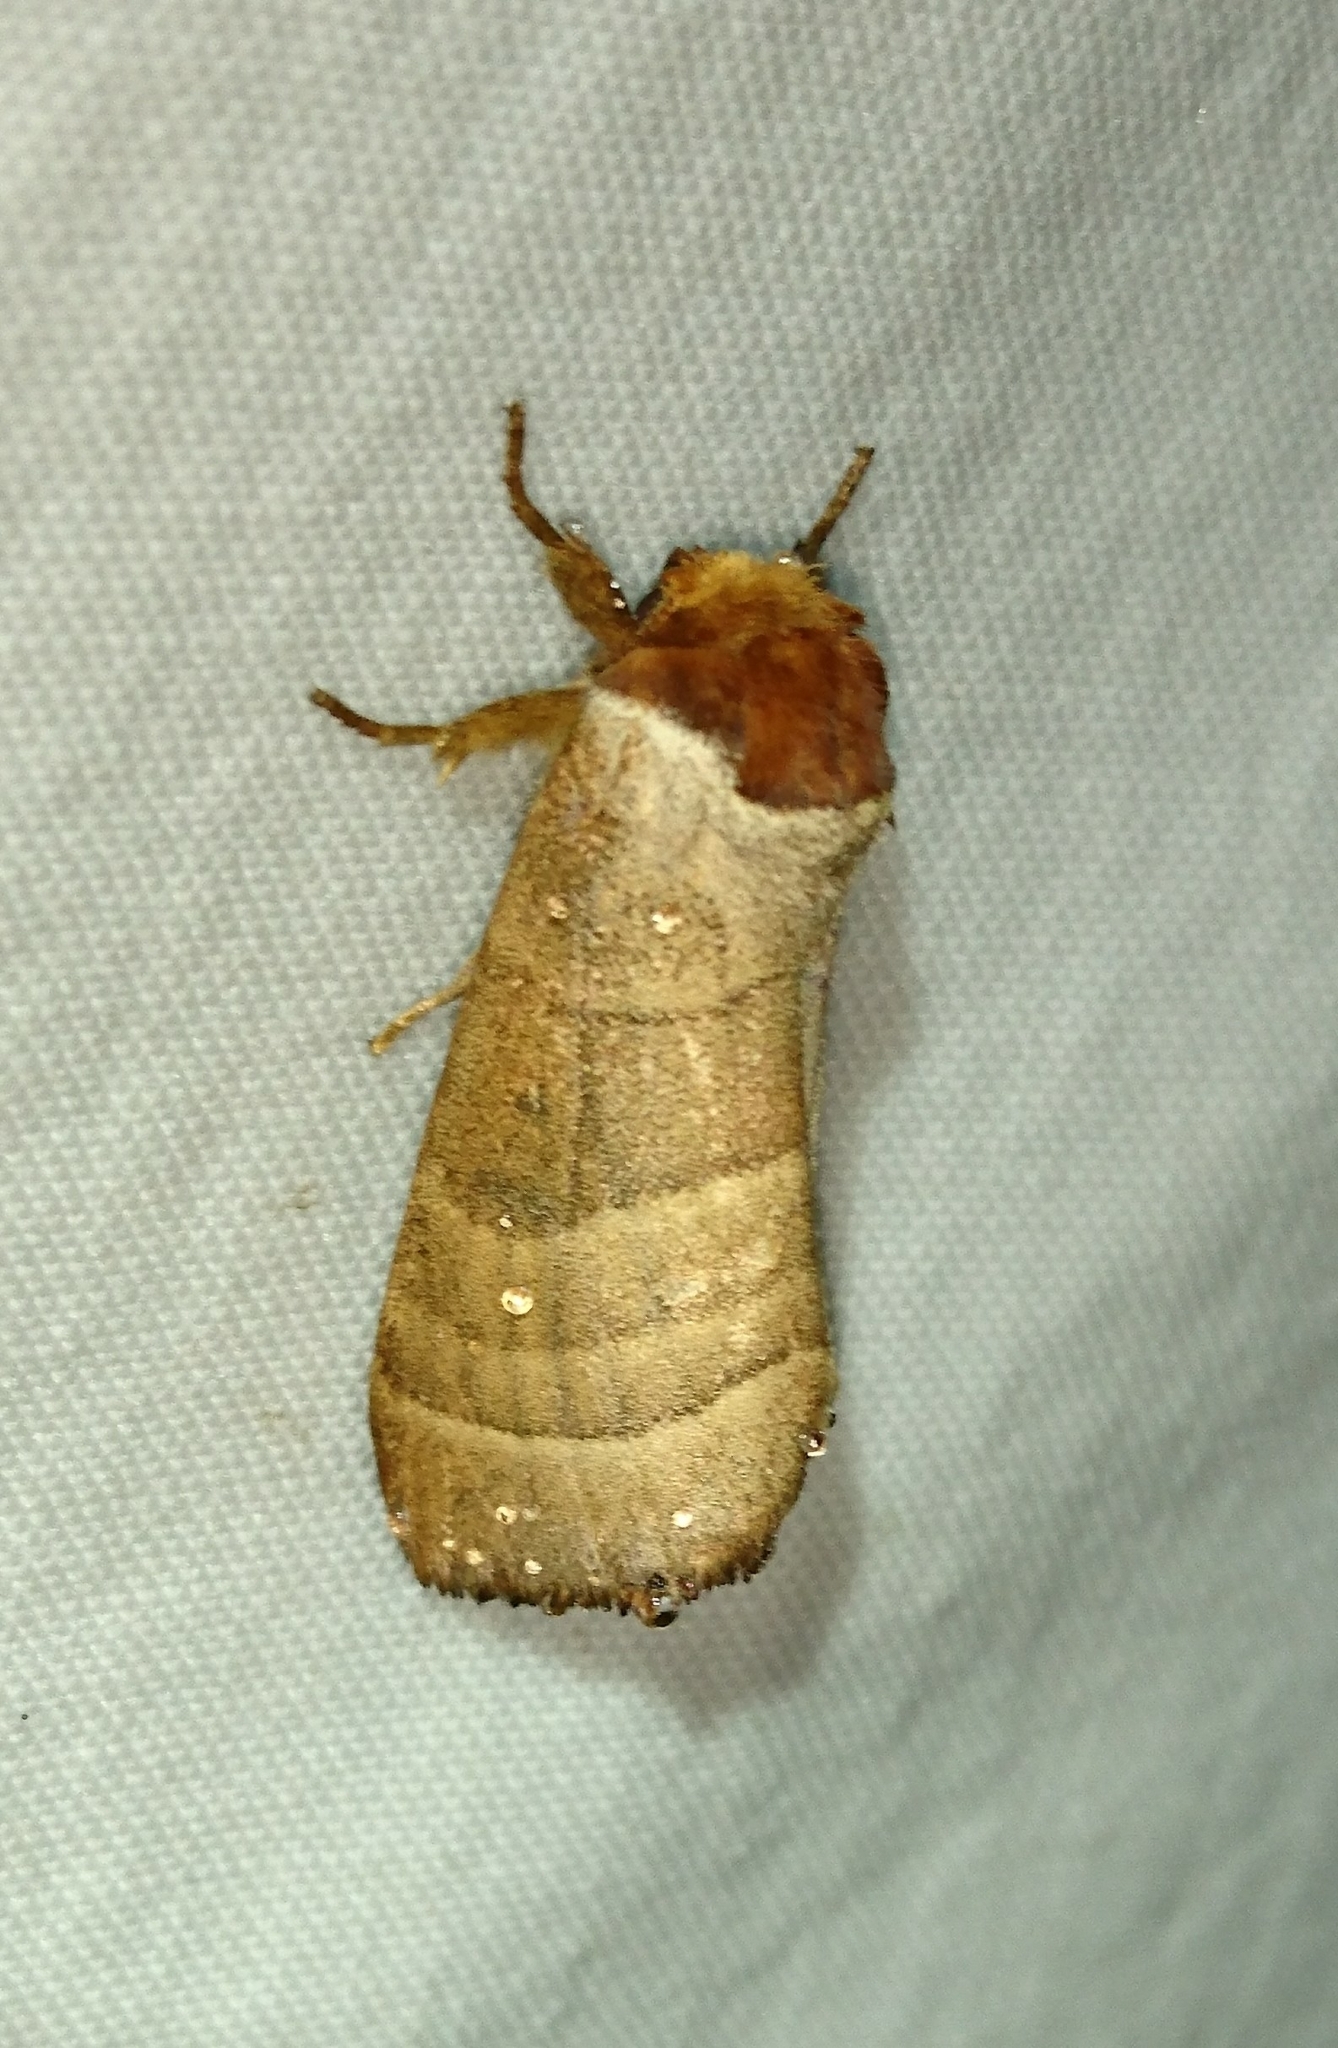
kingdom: Animalia
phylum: Arthropoda
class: Insecta
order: Lepidoptera
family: Notodontidae
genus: Datana
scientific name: Datana integerrima
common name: Walnut caterpillar
